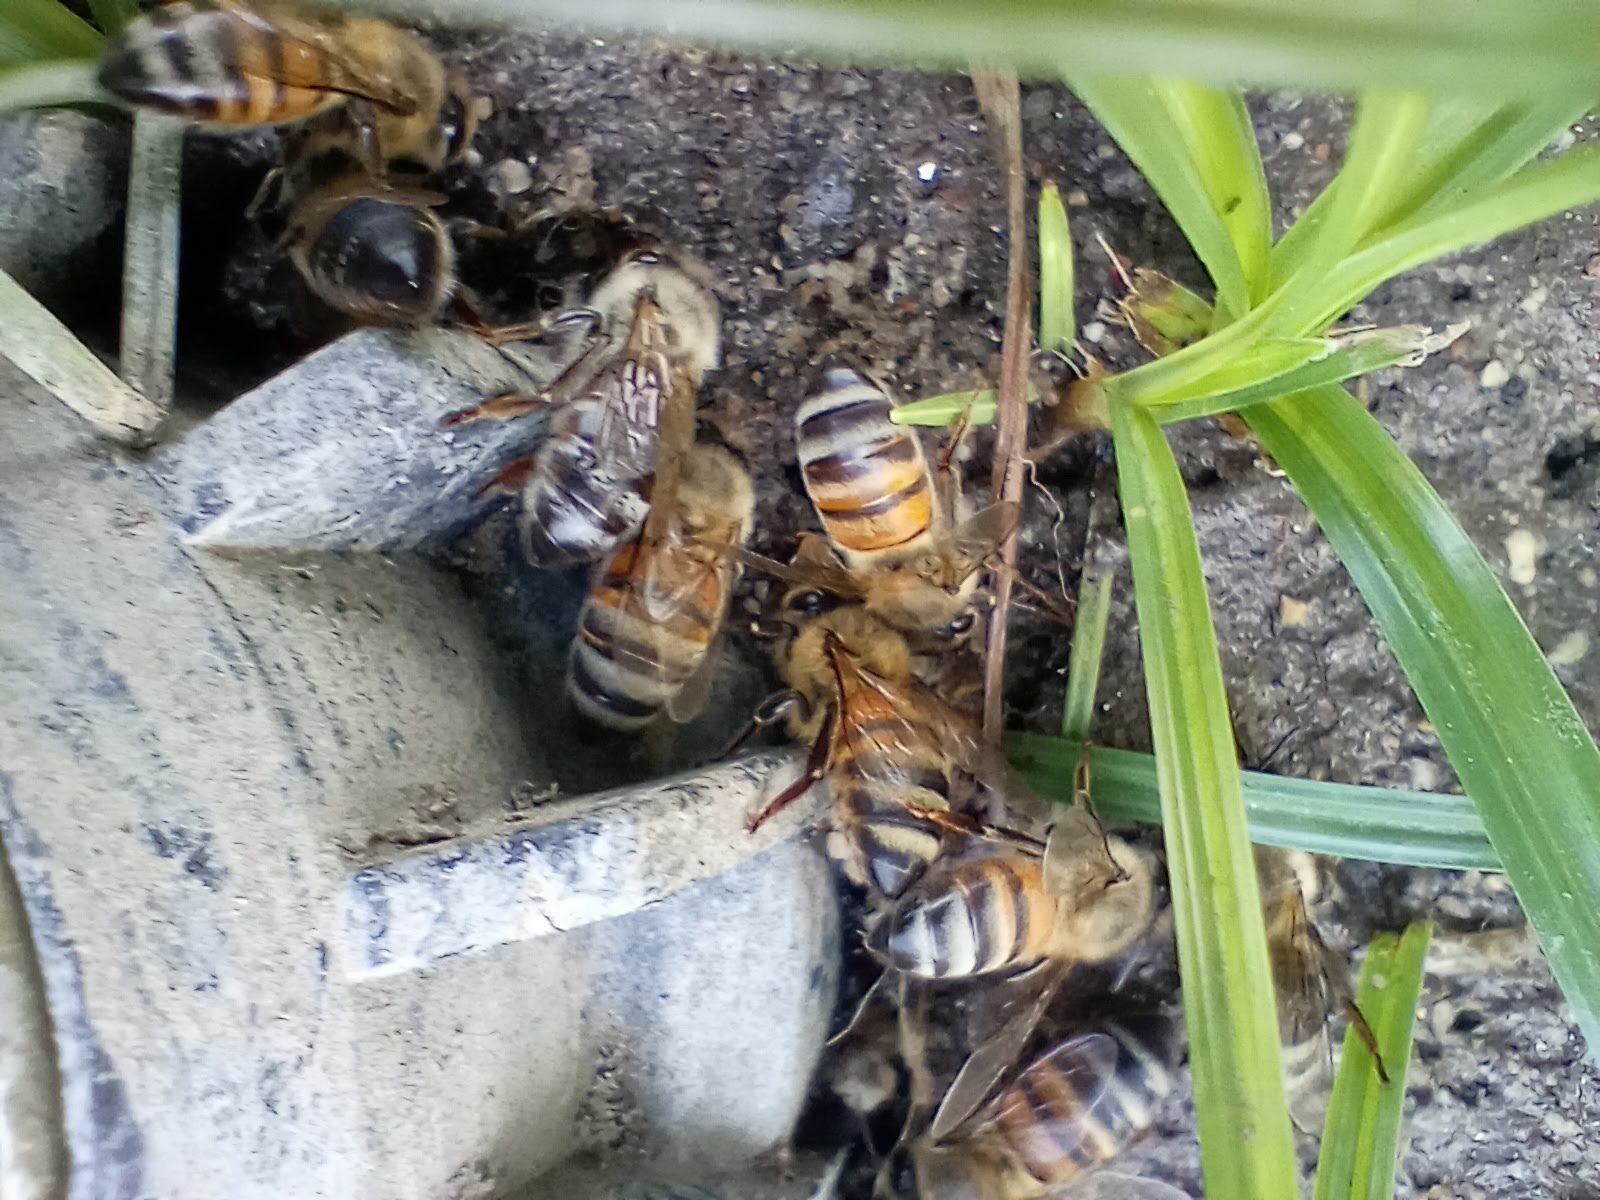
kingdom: Animalia
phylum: Arthropoda
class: Insecta
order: Hymenoptera
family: Apidae
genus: Apis
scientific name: Apis mellifera
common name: Honey bee
